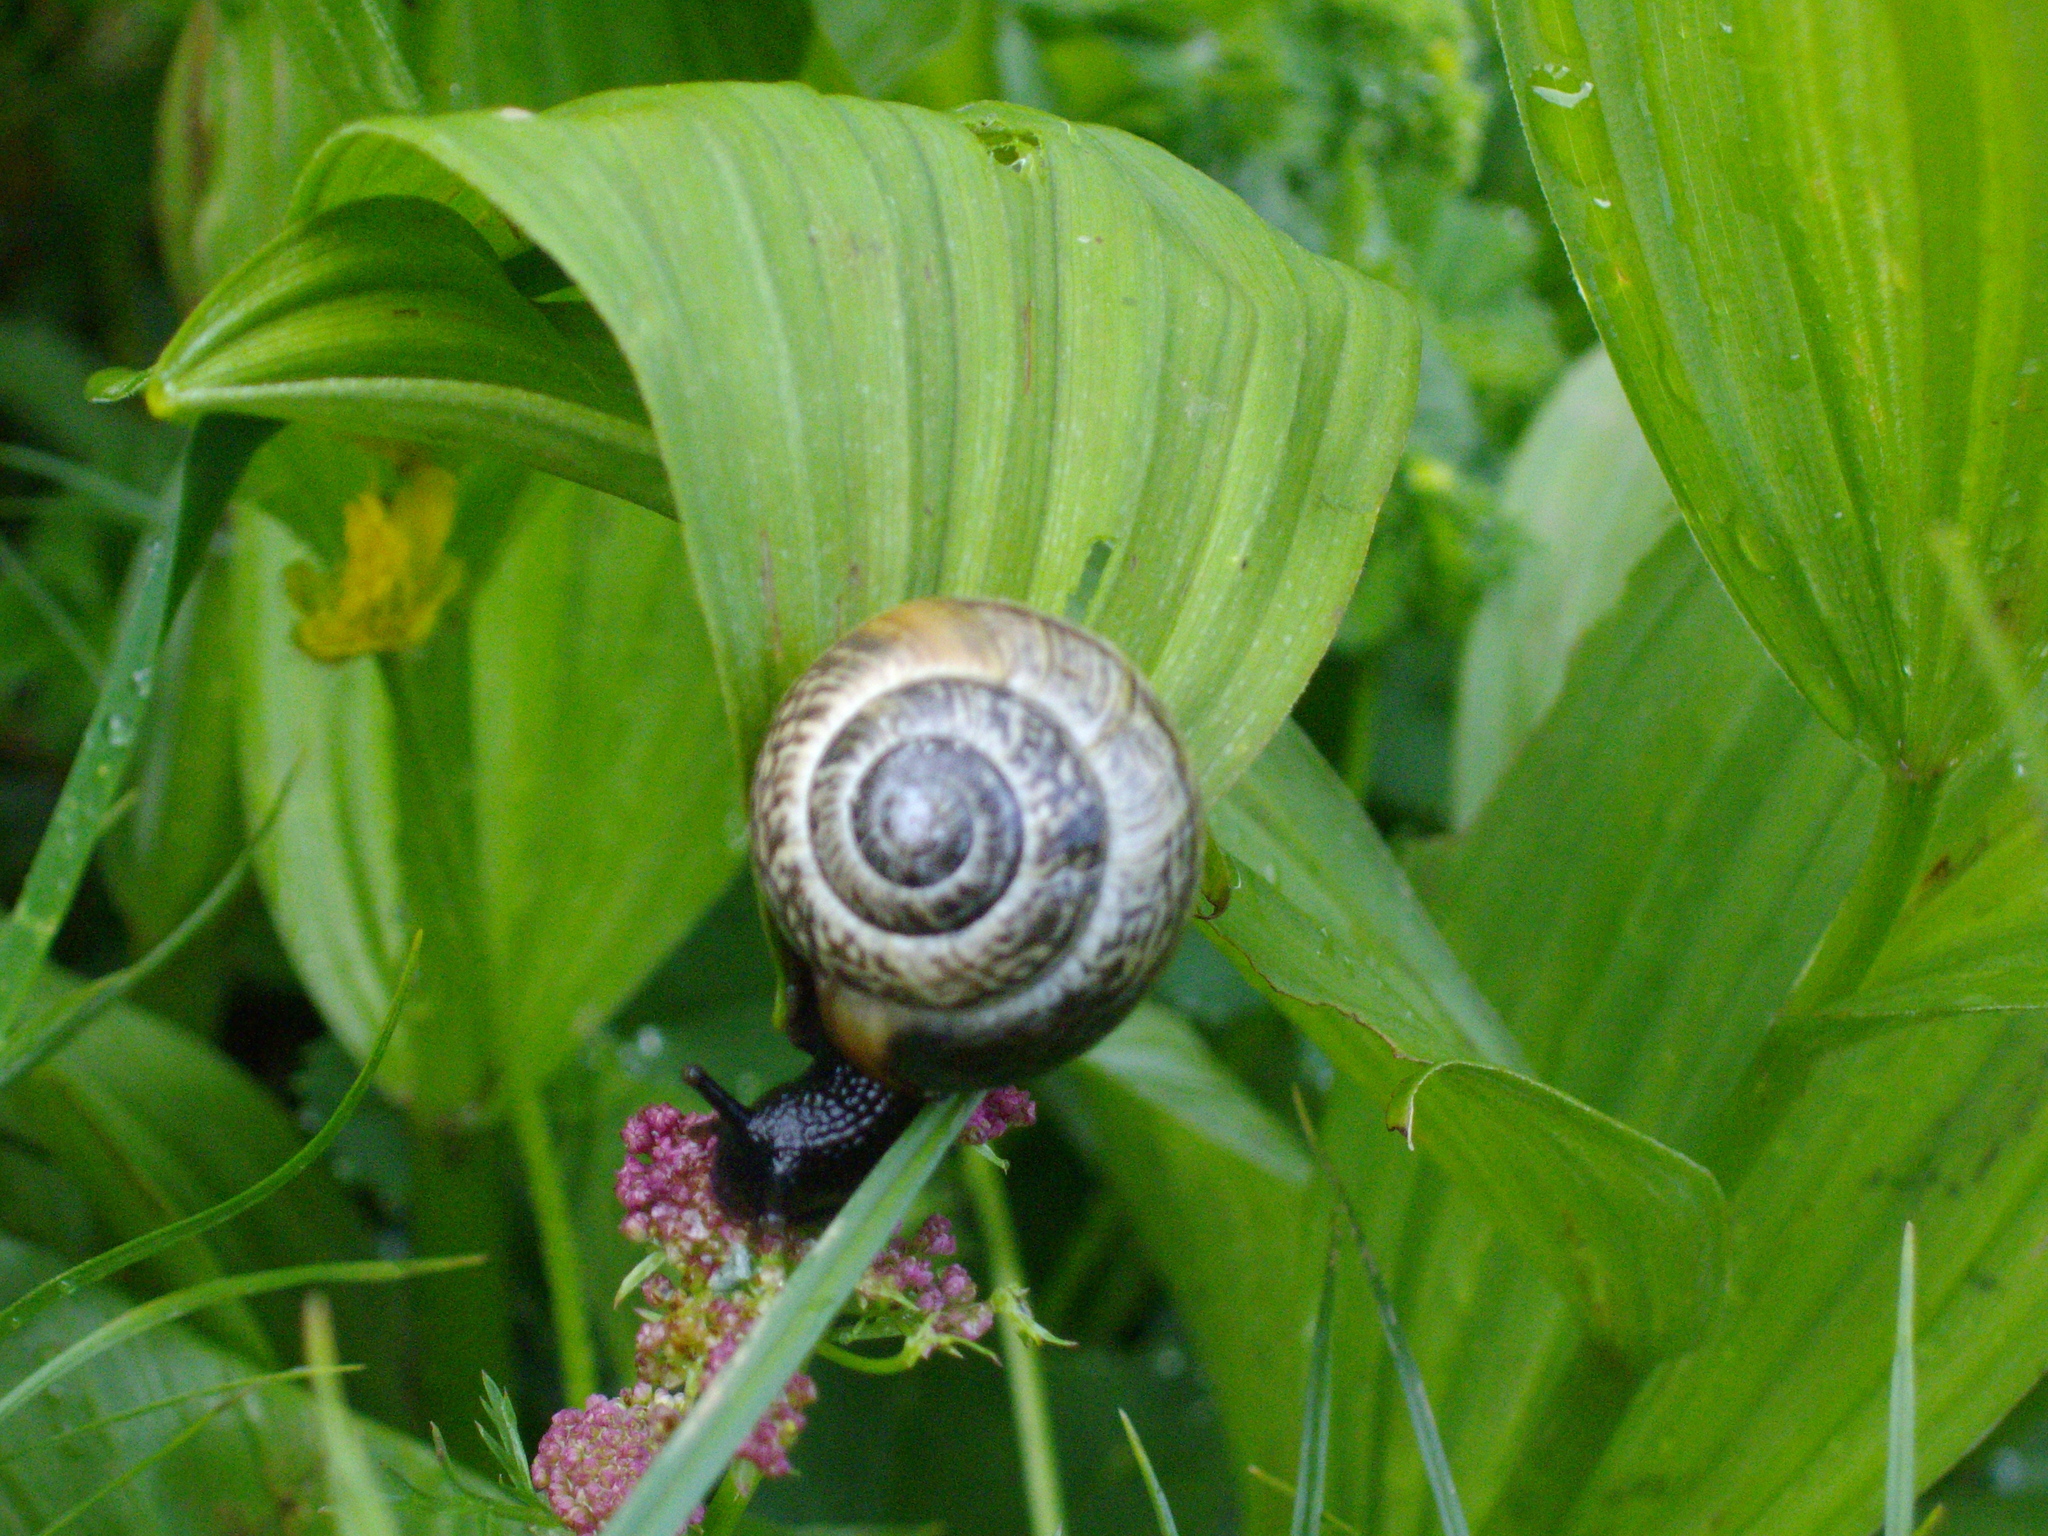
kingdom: Animalia
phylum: Mollusca
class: Gastropoda
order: Stylommatophora
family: Helicidae
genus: Arianta
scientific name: Arianta arbustorum
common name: Copse snail
